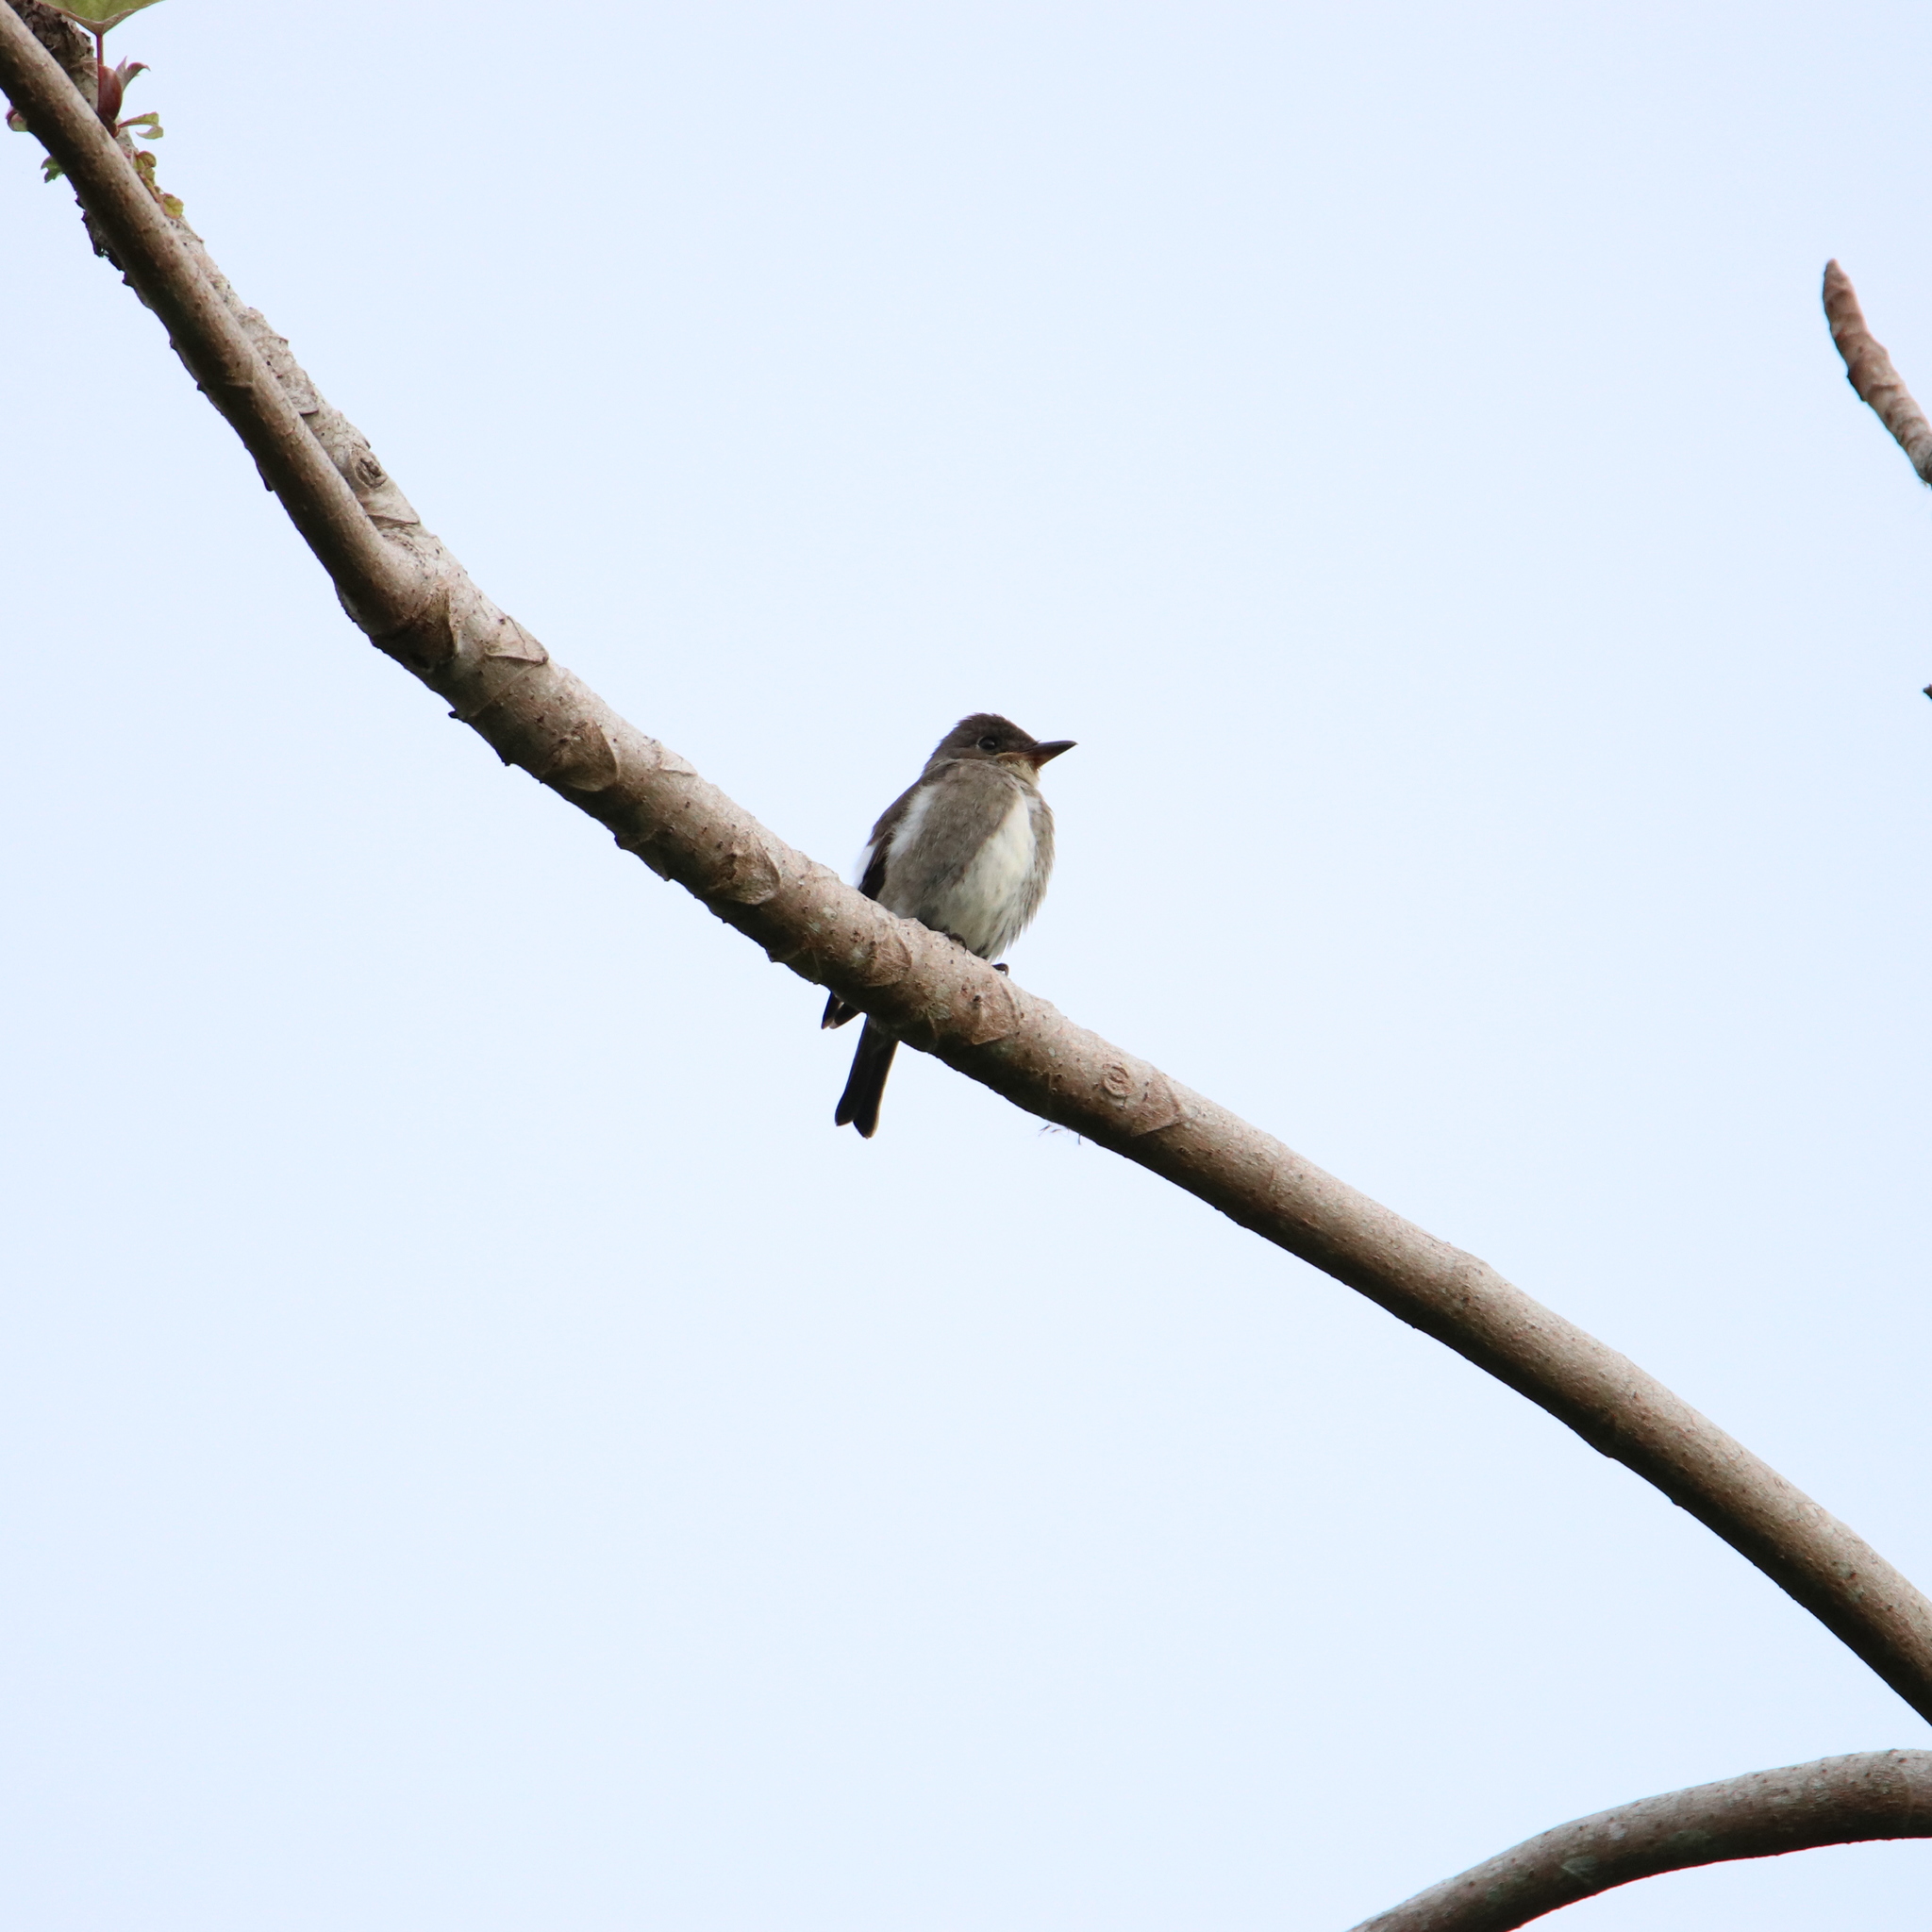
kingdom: Animalia
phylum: Chordata
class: Aves
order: Passeriformes
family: Tyrannidae
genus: Contopus
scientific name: Contopus cooperi
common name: Olive-sided flycatcher
